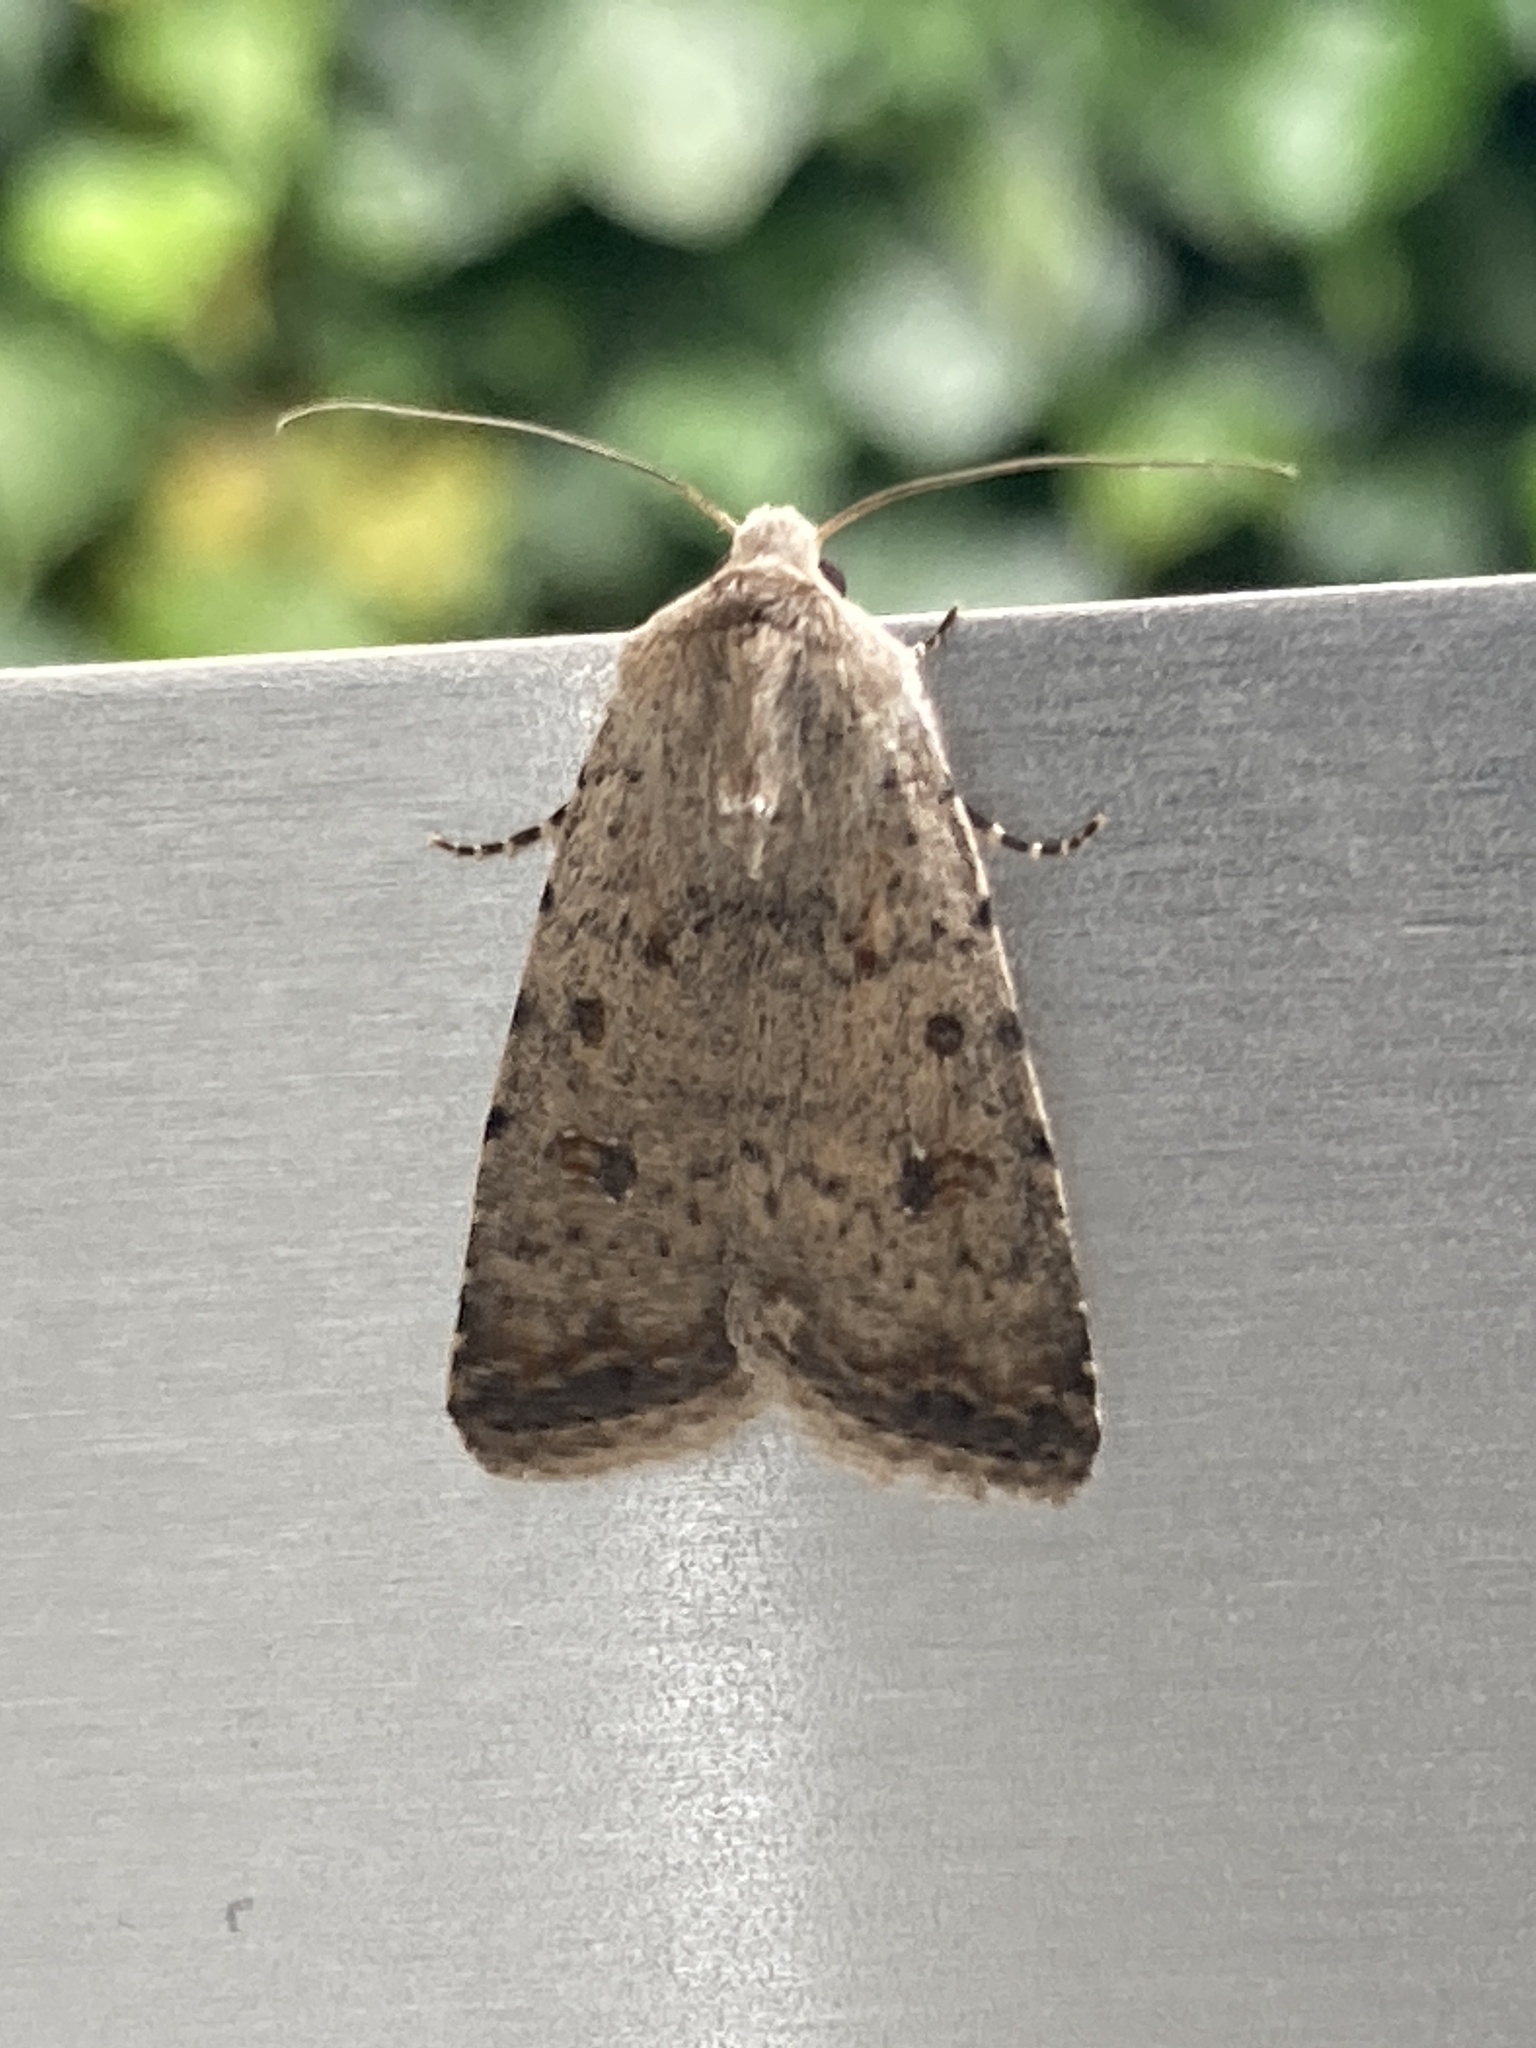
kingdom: Animalia
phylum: Arthropoda
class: Insecta
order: Lepidoptera
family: Noctuidae
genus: Caradrina
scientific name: Caradrina clavipalpis
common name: Pale mottled willow
